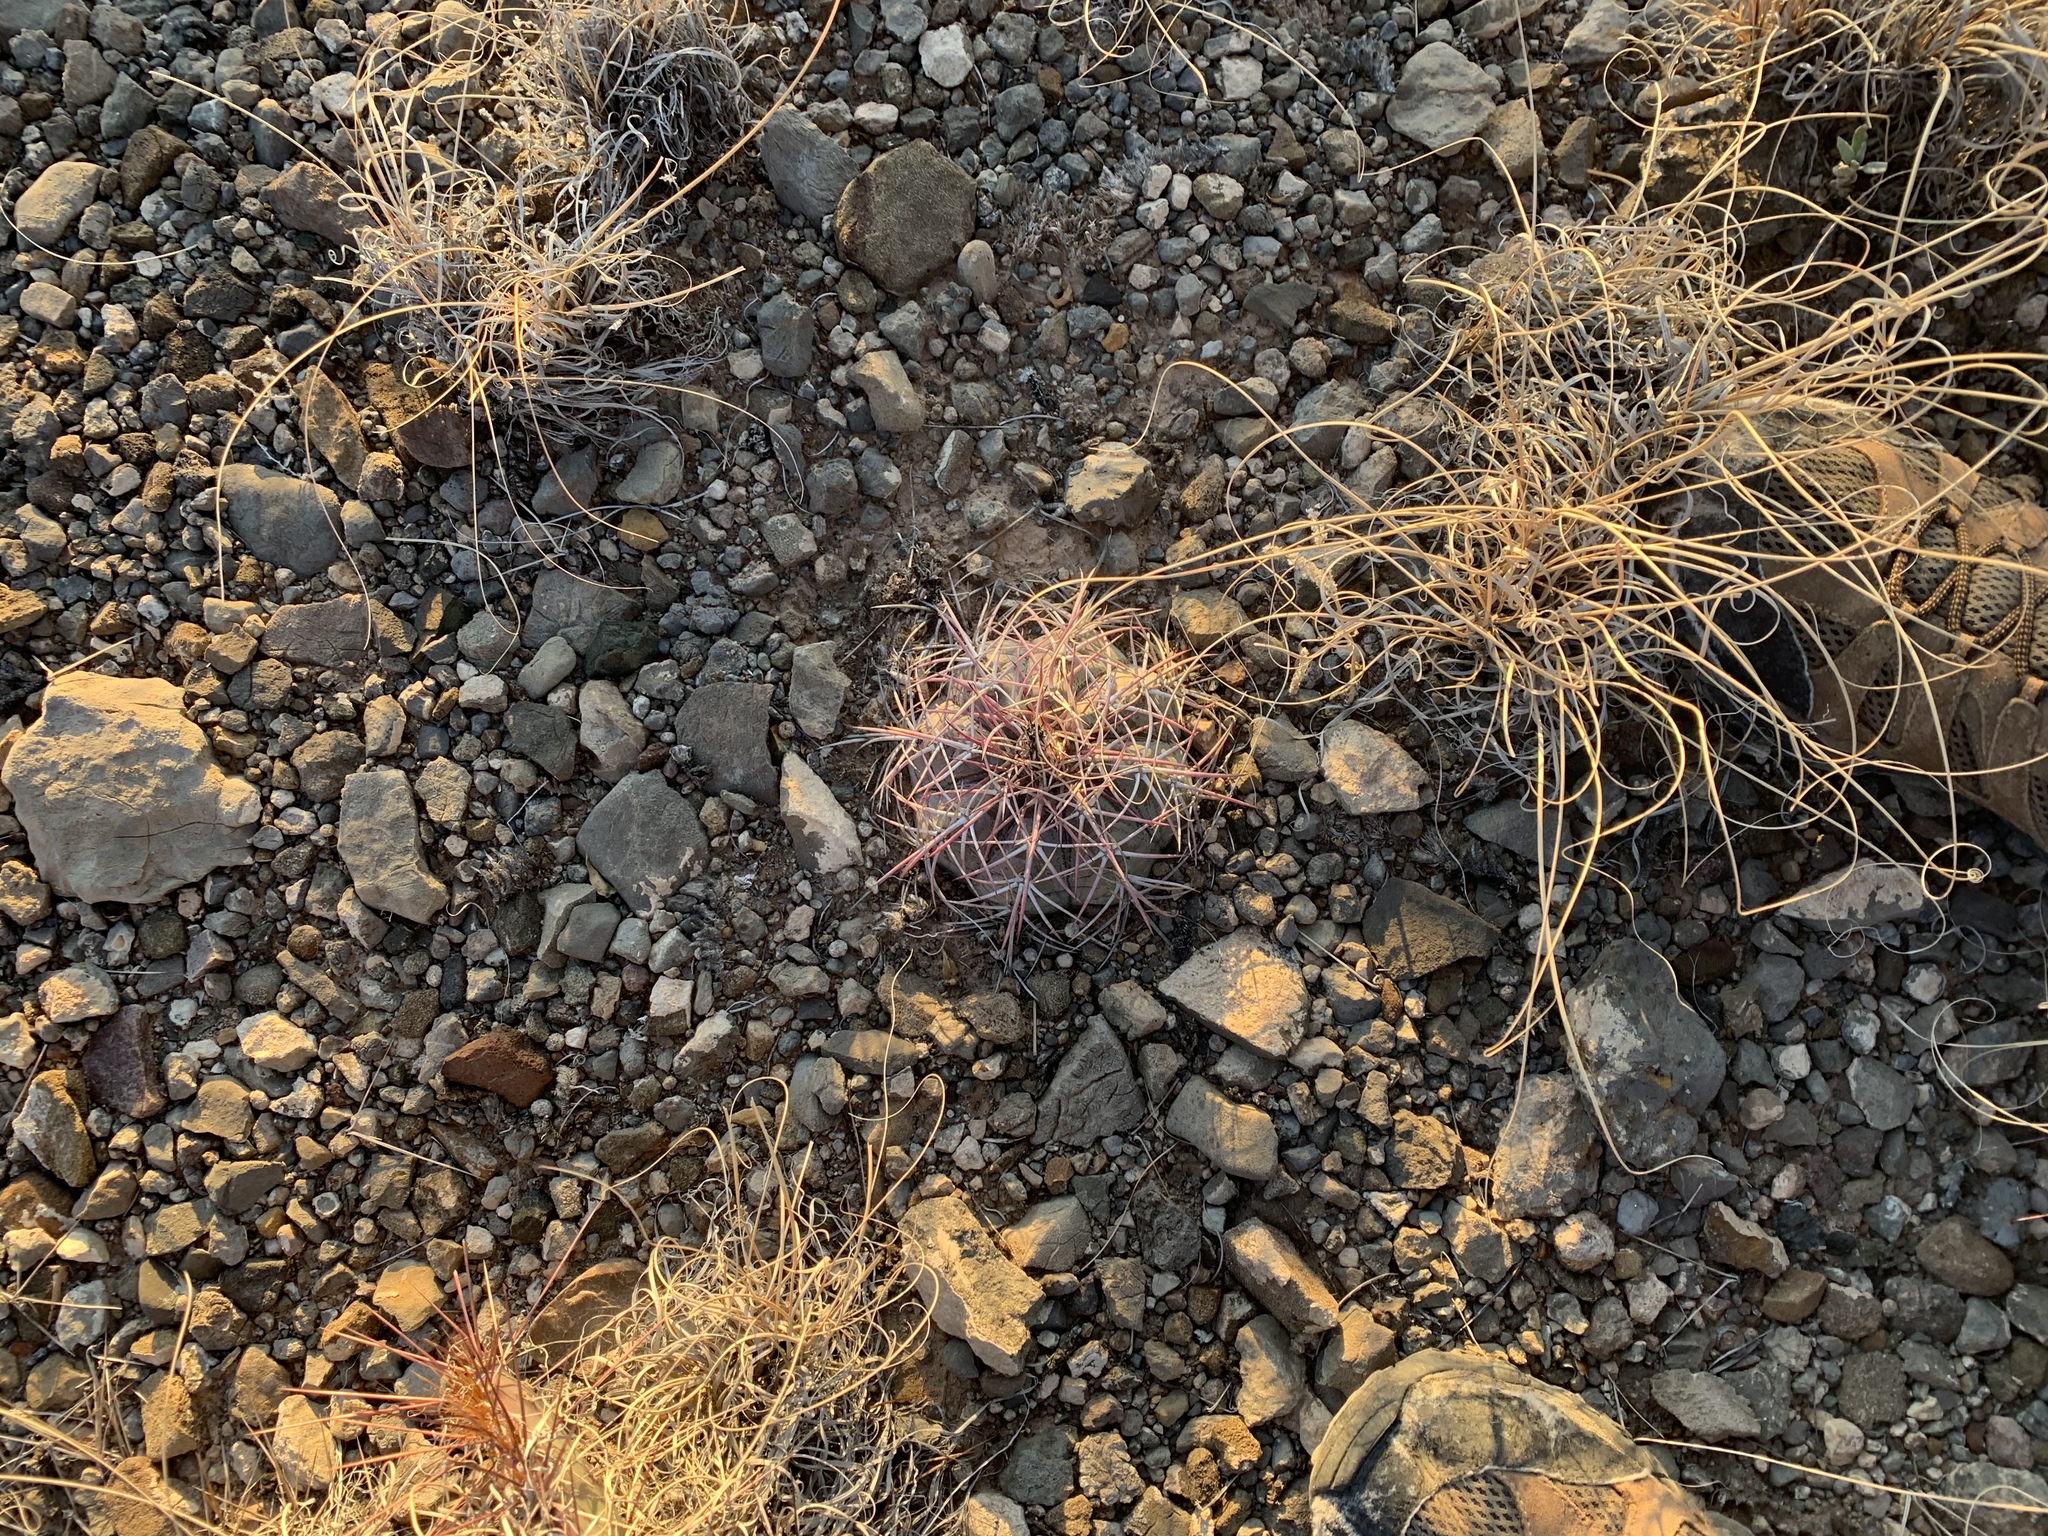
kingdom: Plantae
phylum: Tracheophyta
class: Magnoliopsida
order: Caryophyllales
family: Cactaceae
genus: Echinocactus
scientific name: Echinocactus horizonthalonius
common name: Devilshead
